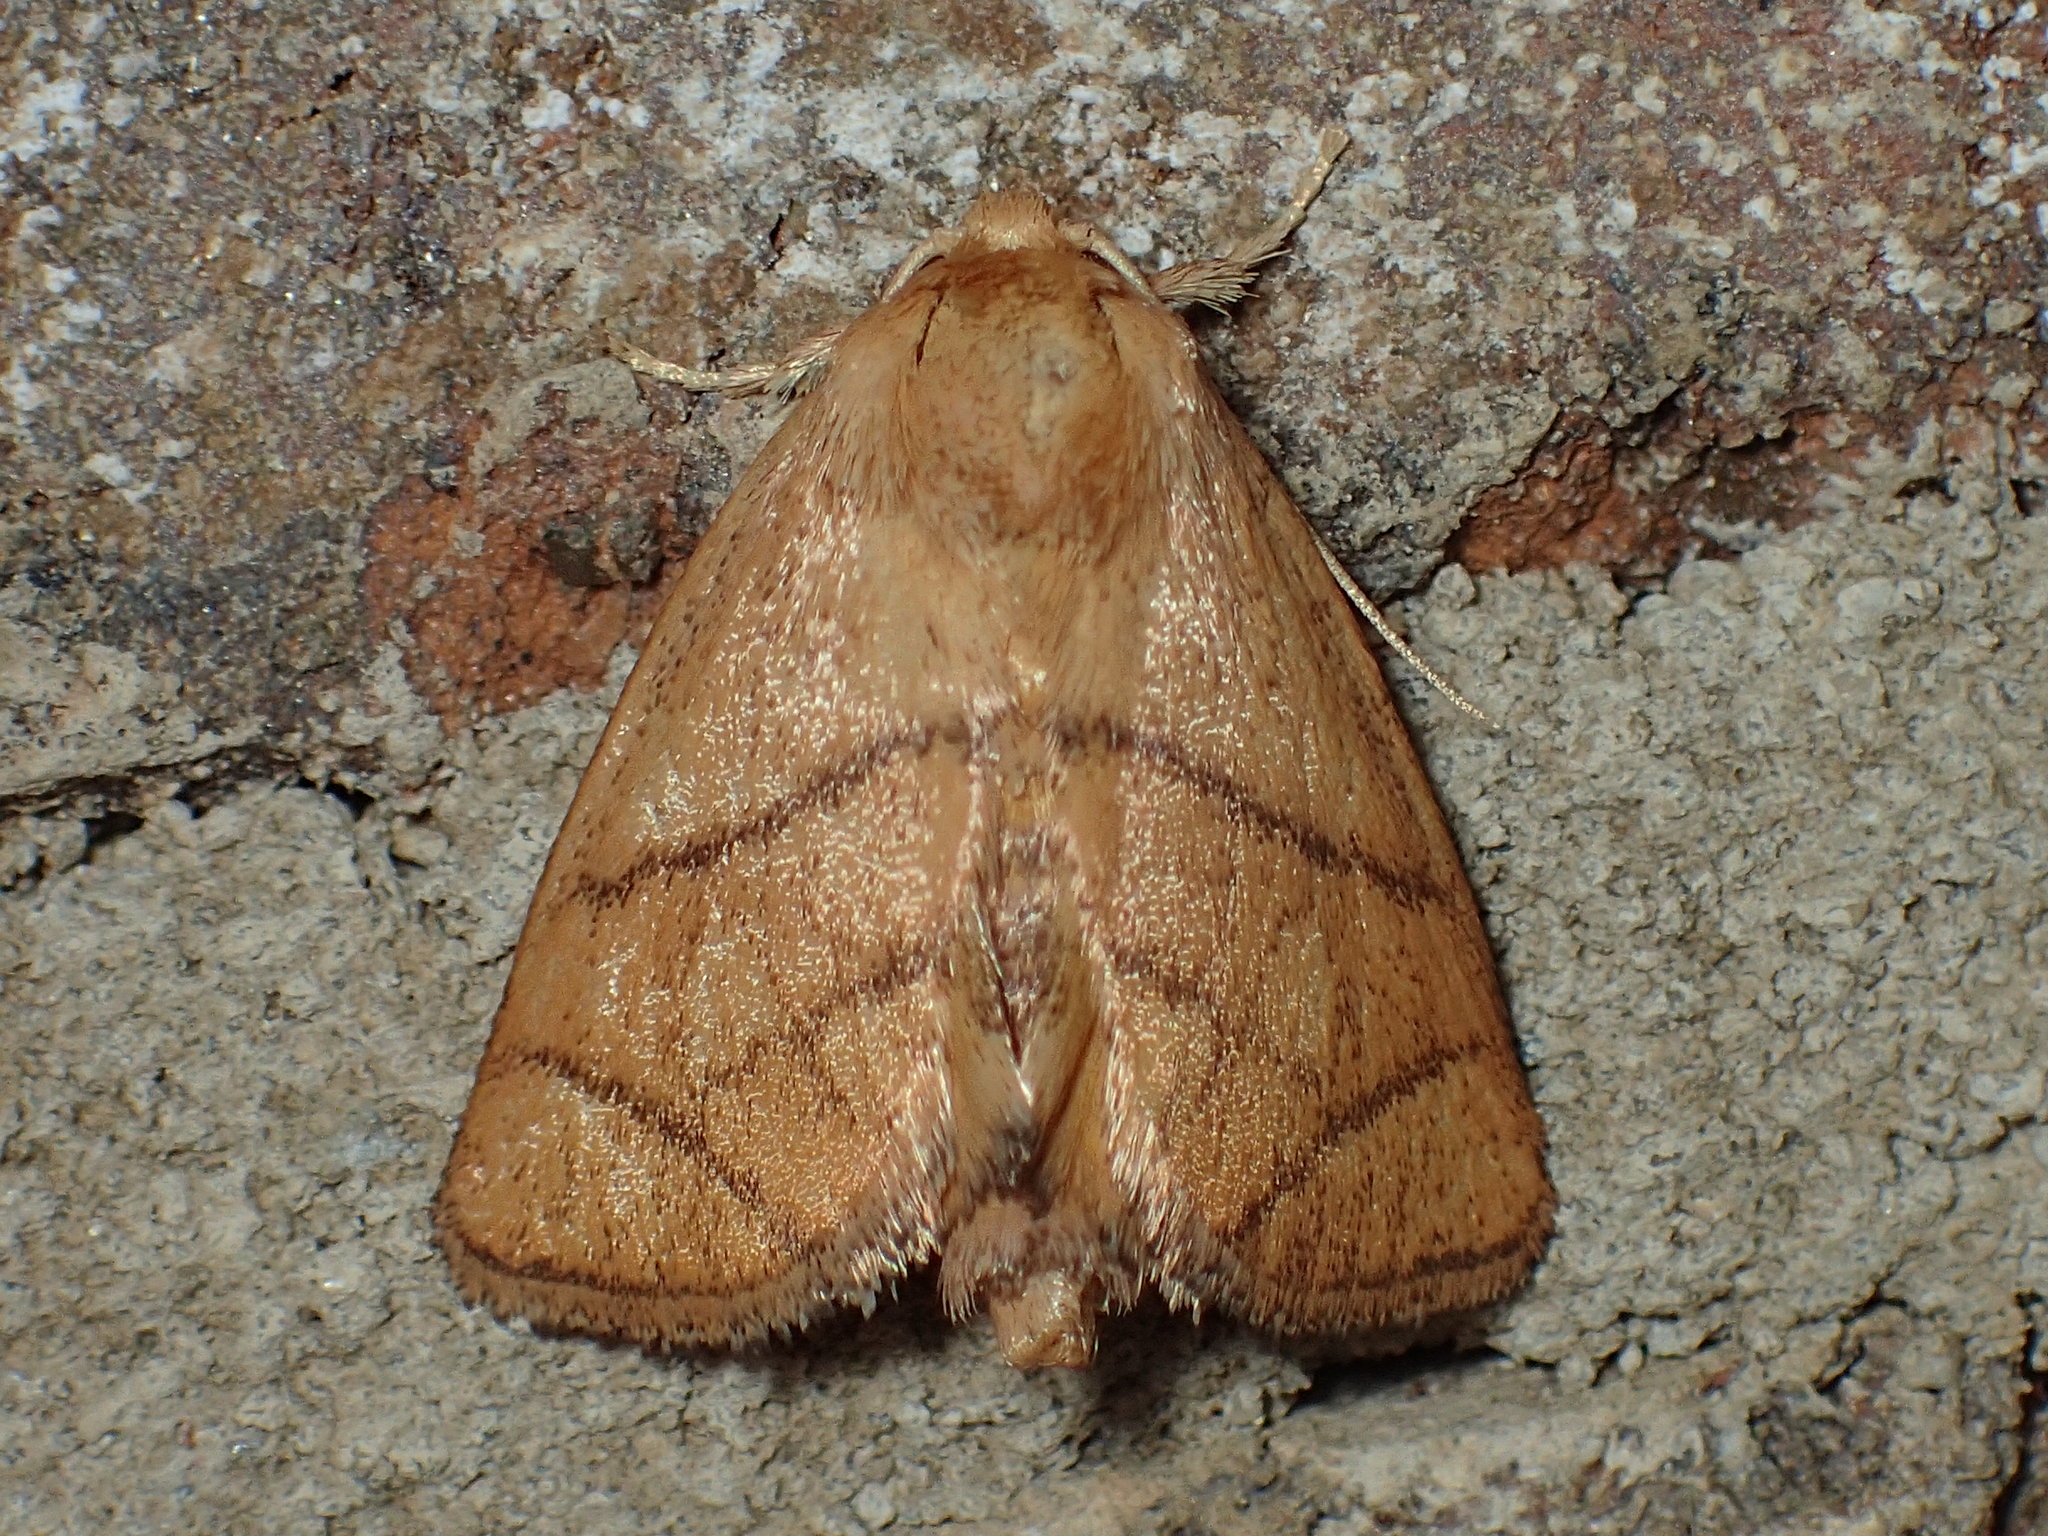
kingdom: Animalia
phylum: Arthropoda
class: Insecta
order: Lepidoptera
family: Limacodidae
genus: Apoda
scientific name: Apoda y-inversa
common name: Yellow-collared slug moth
